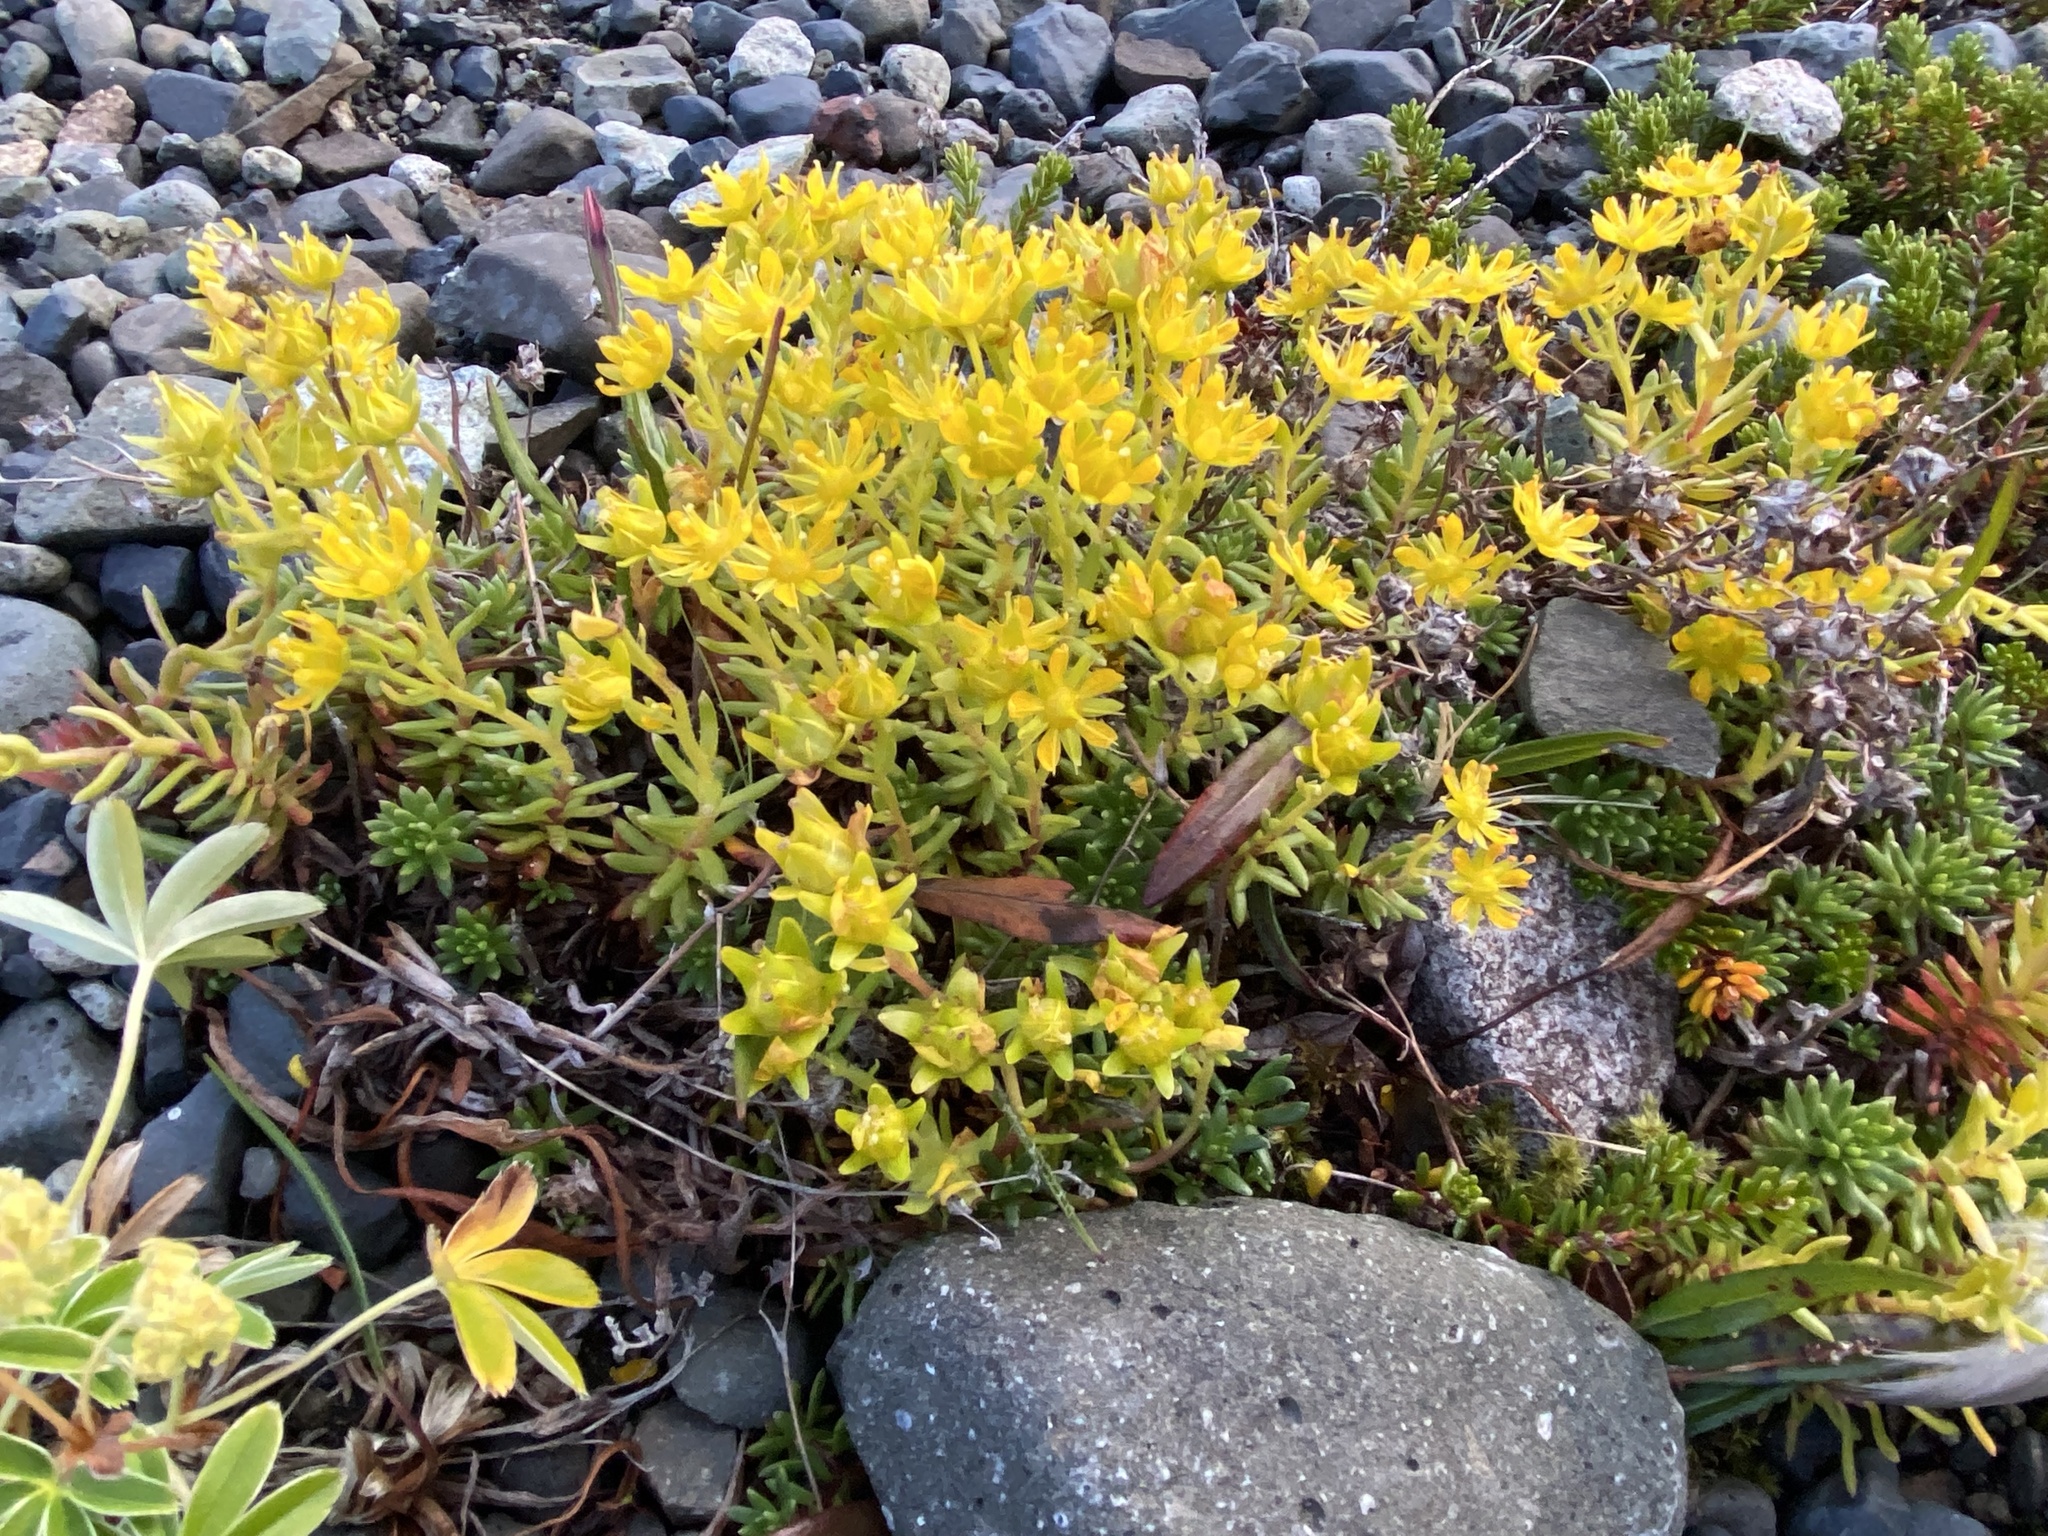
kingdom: Plantae
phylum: Tracheophyta
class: Magnoliopsida
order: Saxifragales
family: Saxifragaceae
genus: Saxifraga
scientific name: Saxifraga aizoides
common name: Yellow mountain saxifrage
